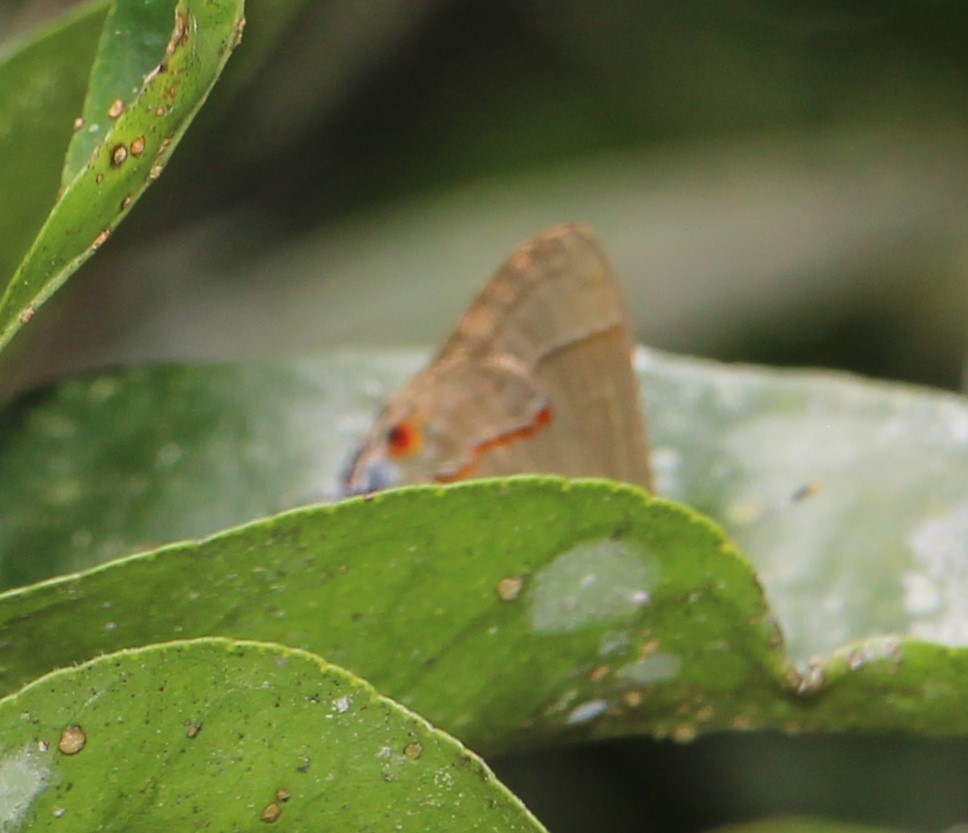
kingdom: Animalia
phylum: Arthropoda
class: Insecta
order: Lepidoptera
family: Lycaenidae
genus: Thecla
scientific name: Thecla syllis
